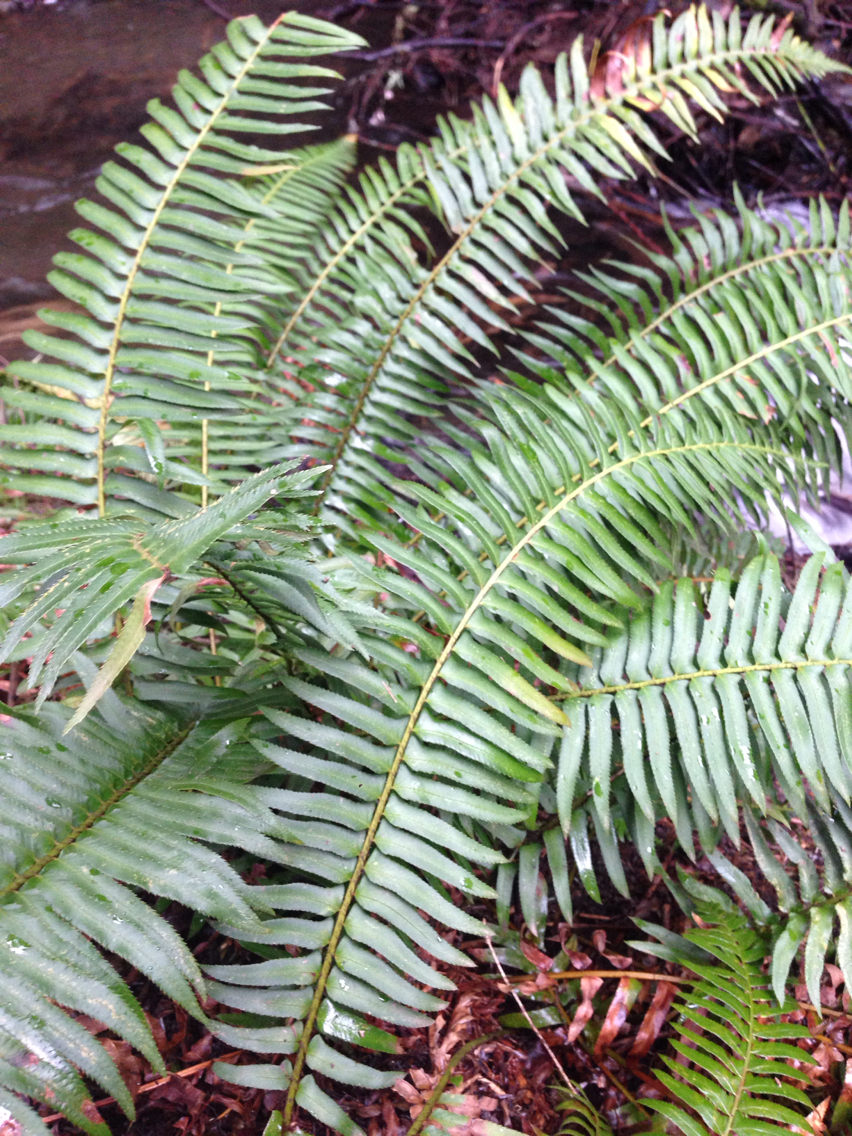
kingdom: Plantae
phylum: Tracheophyta
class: Polypodiopsida
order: Polypodiales
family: Dryopteridaceae
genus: Polystichum
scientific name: Polystichum munitum
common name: Western sword-fern
